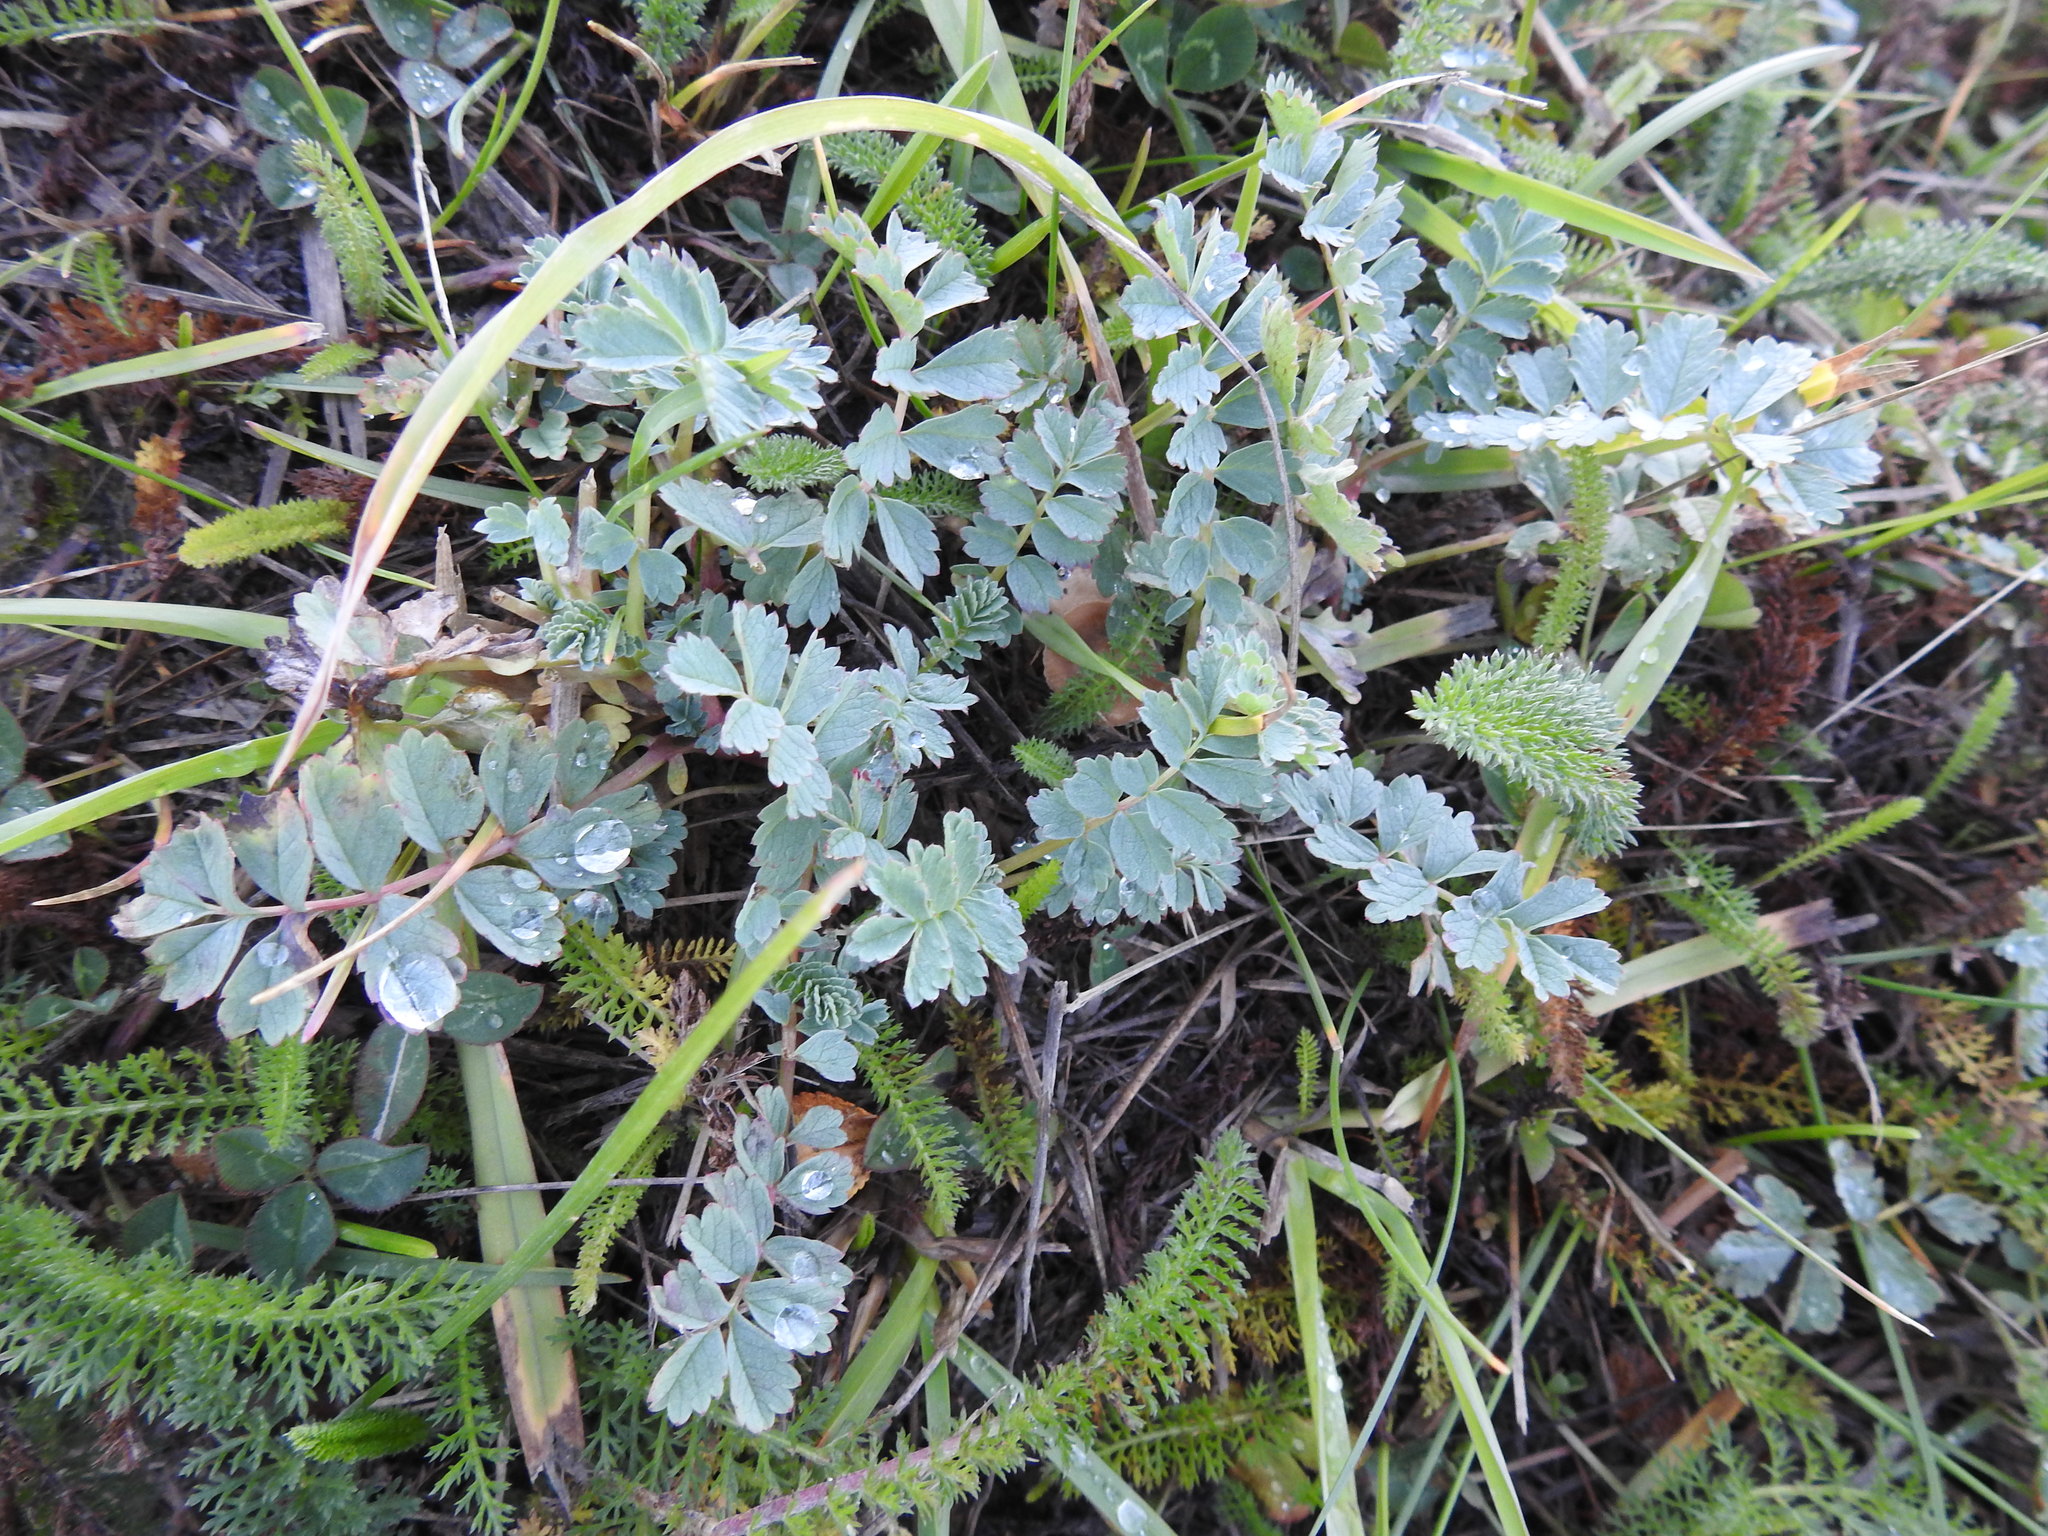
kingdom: Plantae
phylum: Tracheophyta
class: Magnoliopsida
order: Rosales
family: Rosaceae
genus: Acaena
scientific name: Acaena magellanica
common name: New zealand burr
